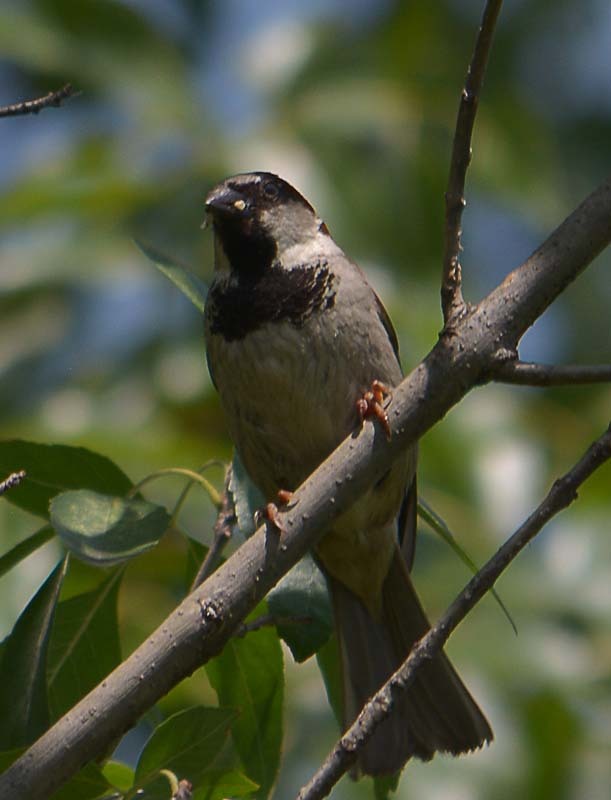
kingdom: Animalia
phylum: Chordata
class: Aves
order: Passeriformes
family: Passeridae
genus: Passer
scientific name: Passer domesticus
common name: House sparrow
